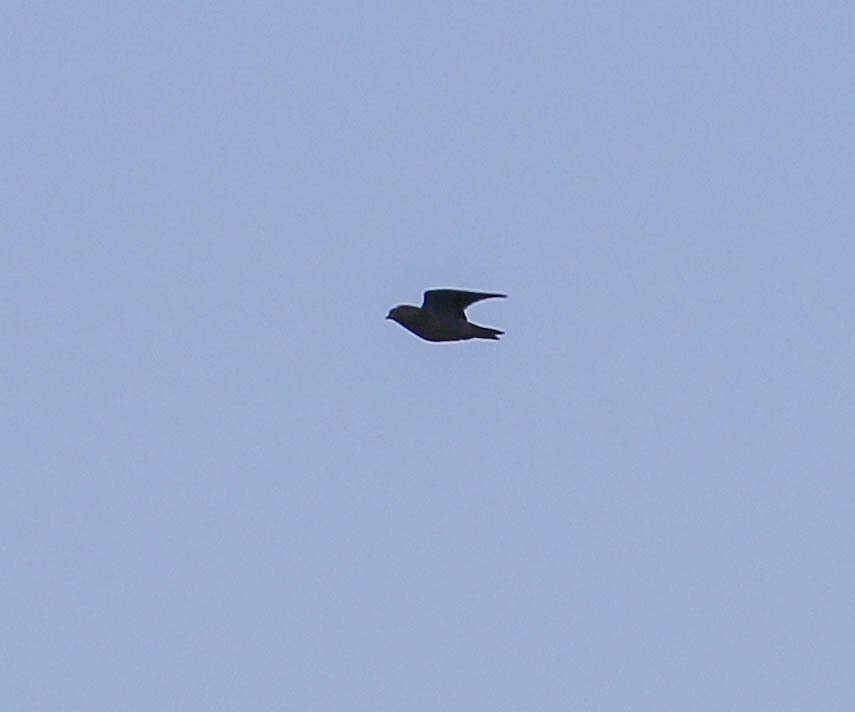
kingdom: Animalia
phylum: Chordata
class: Aves
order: Columbiformes
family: Columbidae
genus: Zenaida
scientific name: Zenaida macroura
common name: Mourning dove
